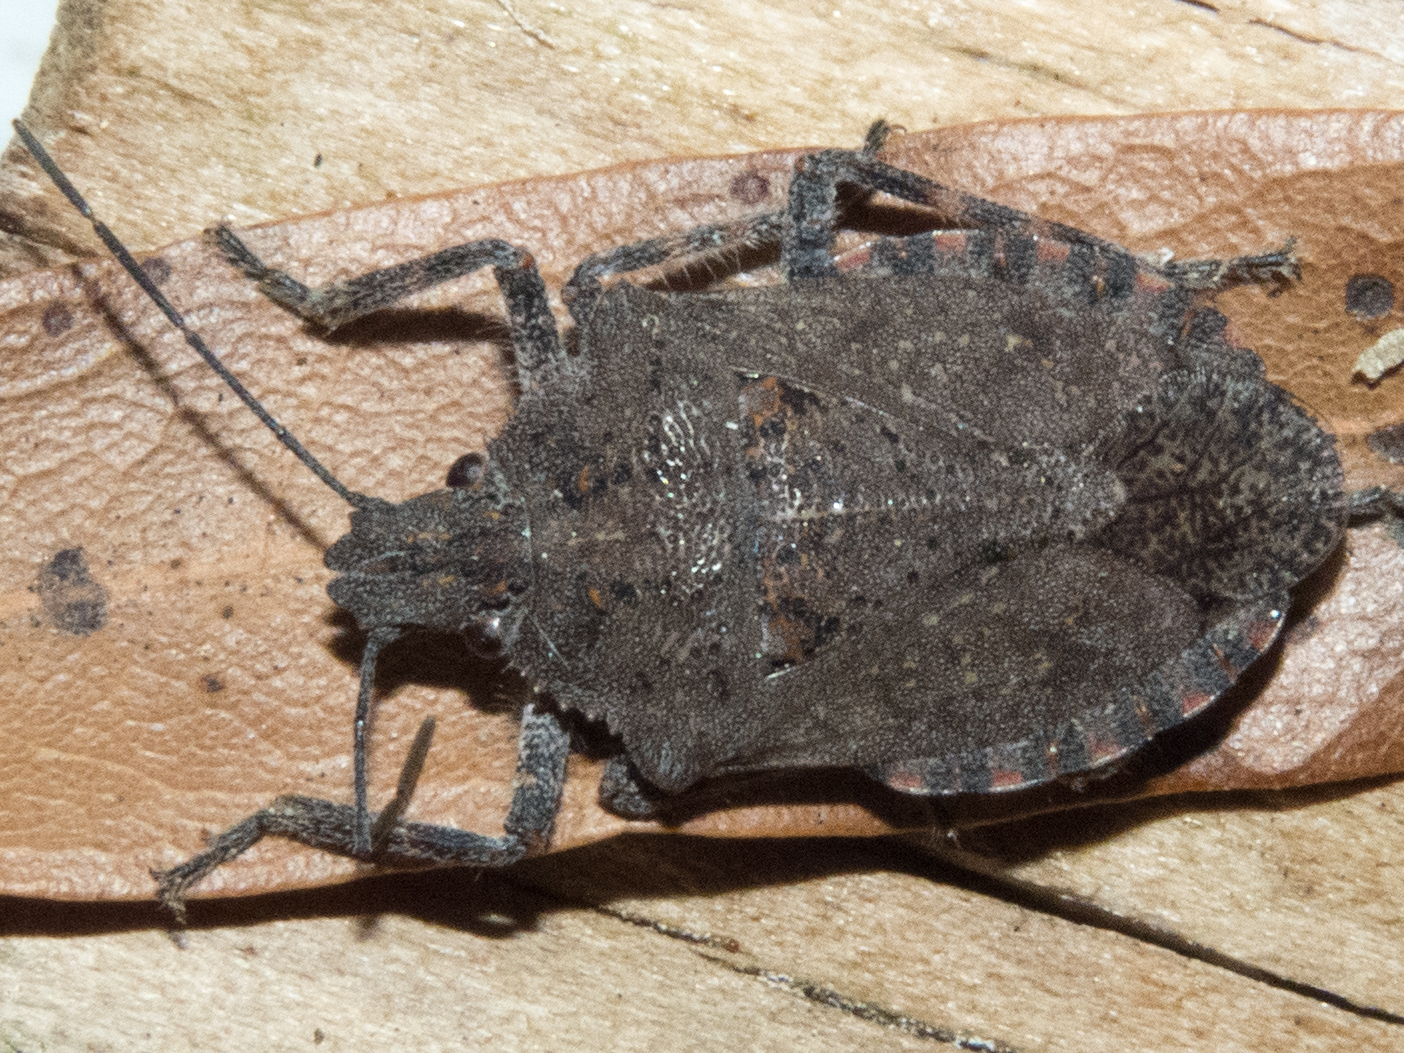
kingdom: Animalia
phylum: Arthropoda
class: Insecta
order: Hemiptera
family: Pentatomidae
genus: Brochymena
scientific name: Brochymena quadripustulata
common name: Four-humped stink bug
